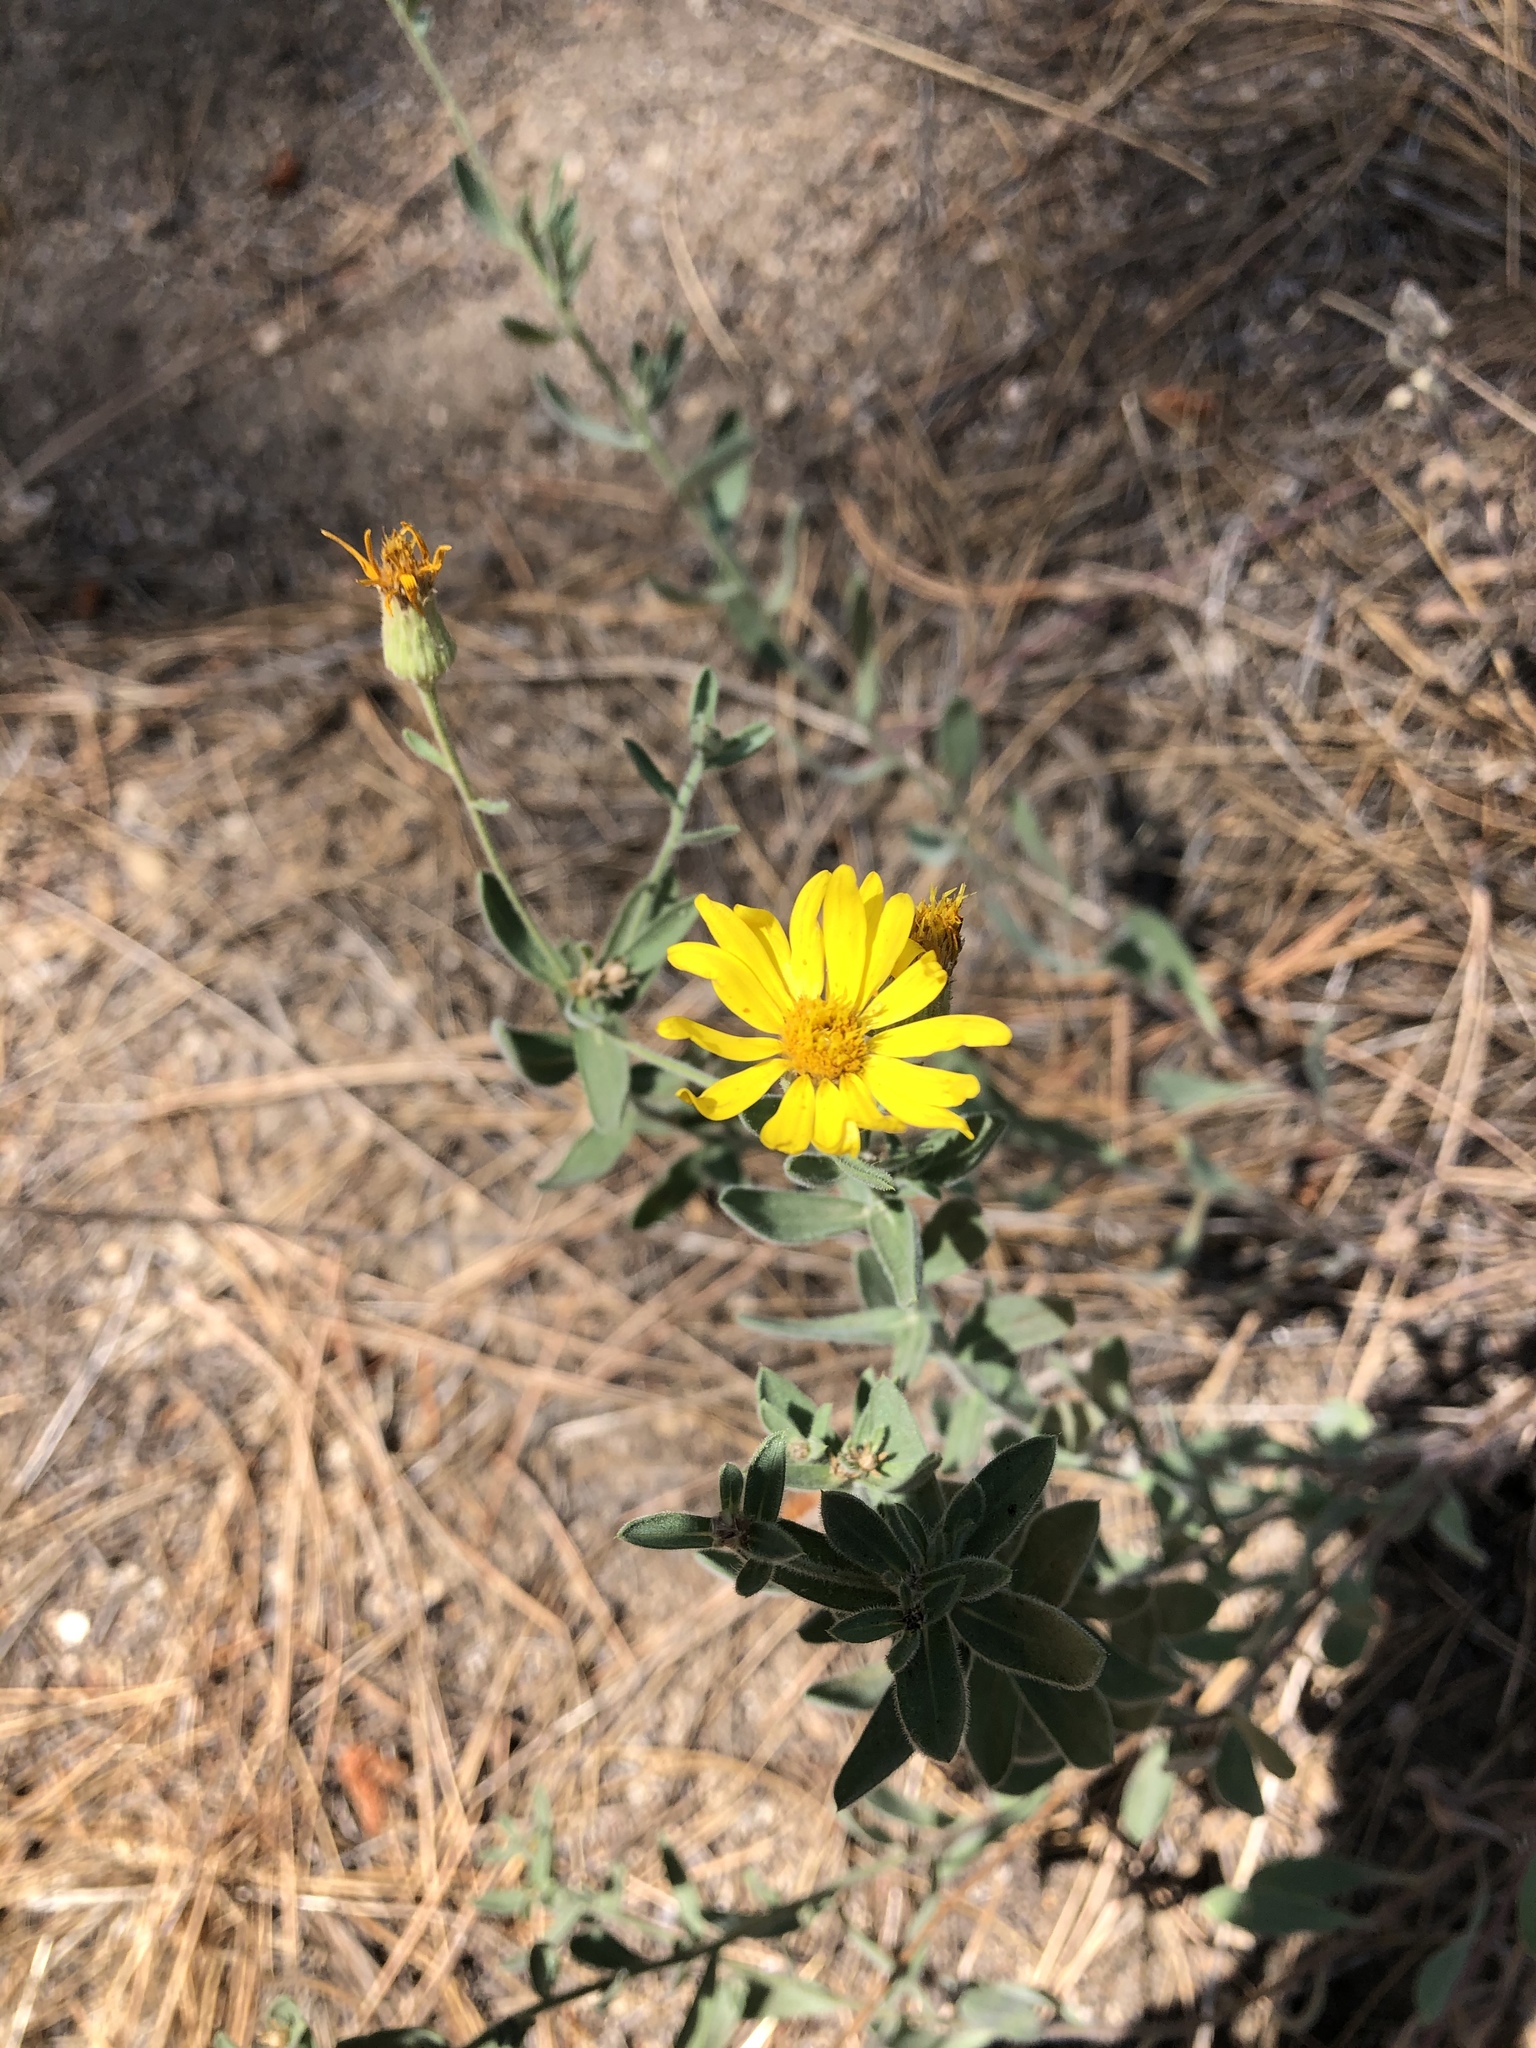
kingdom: Plantae
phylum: Tracheophyta
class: Magnoliopsida
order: Asterales
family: Asteraceae
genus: Heterotheca
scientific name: Heterotheca orovillosa
